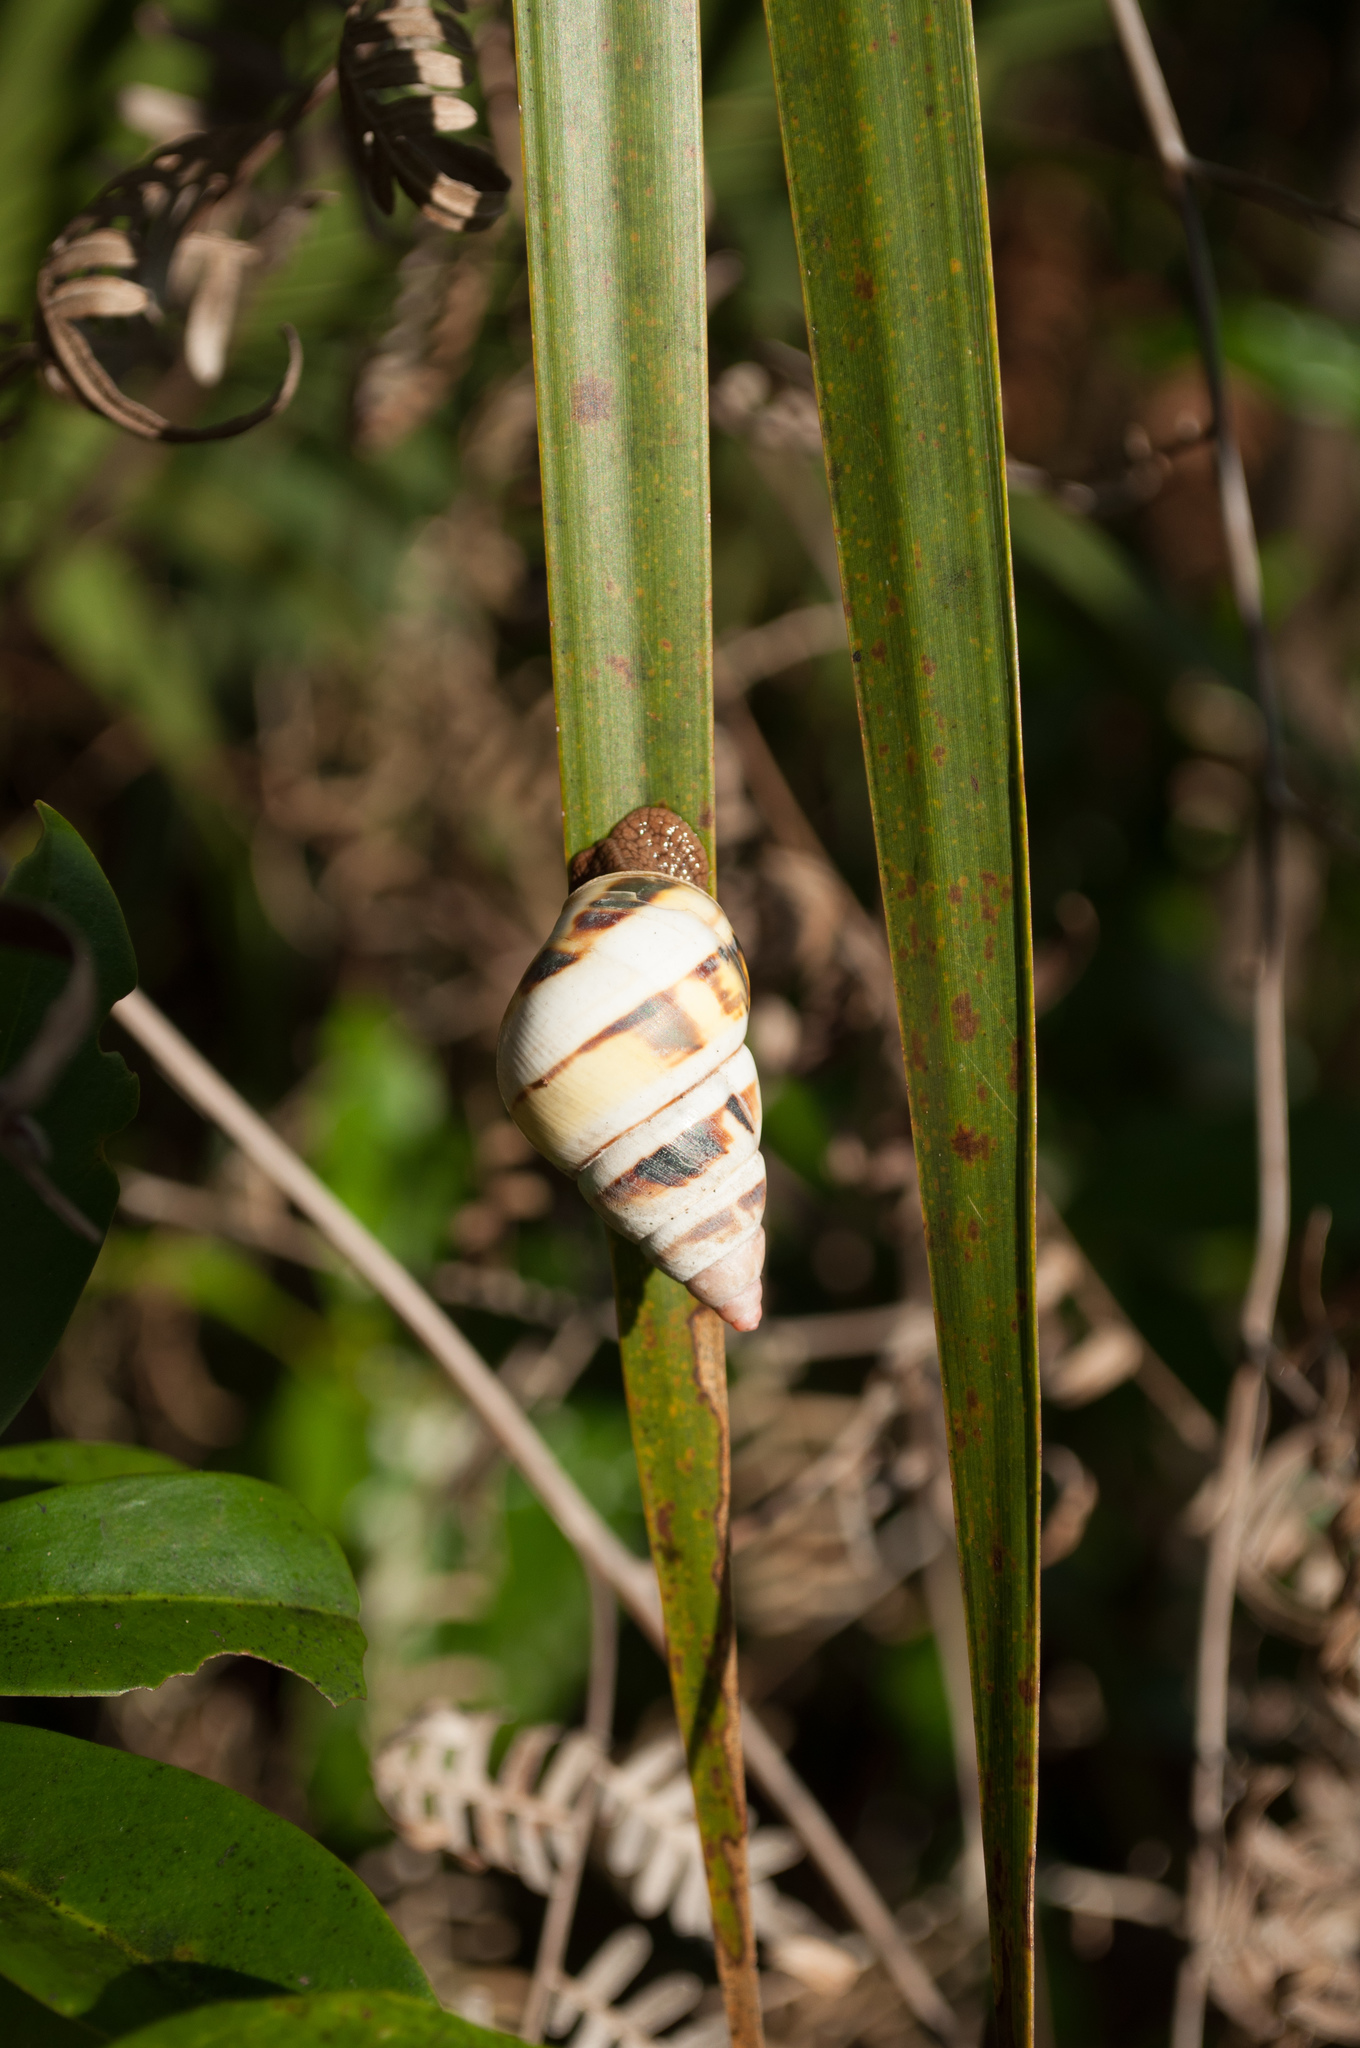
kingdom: Animalia
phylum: Mollusca
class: Gastropoda
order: Stylommatophora
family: Orthalicidae
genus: Liguus
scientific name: Liguus fasciatus
